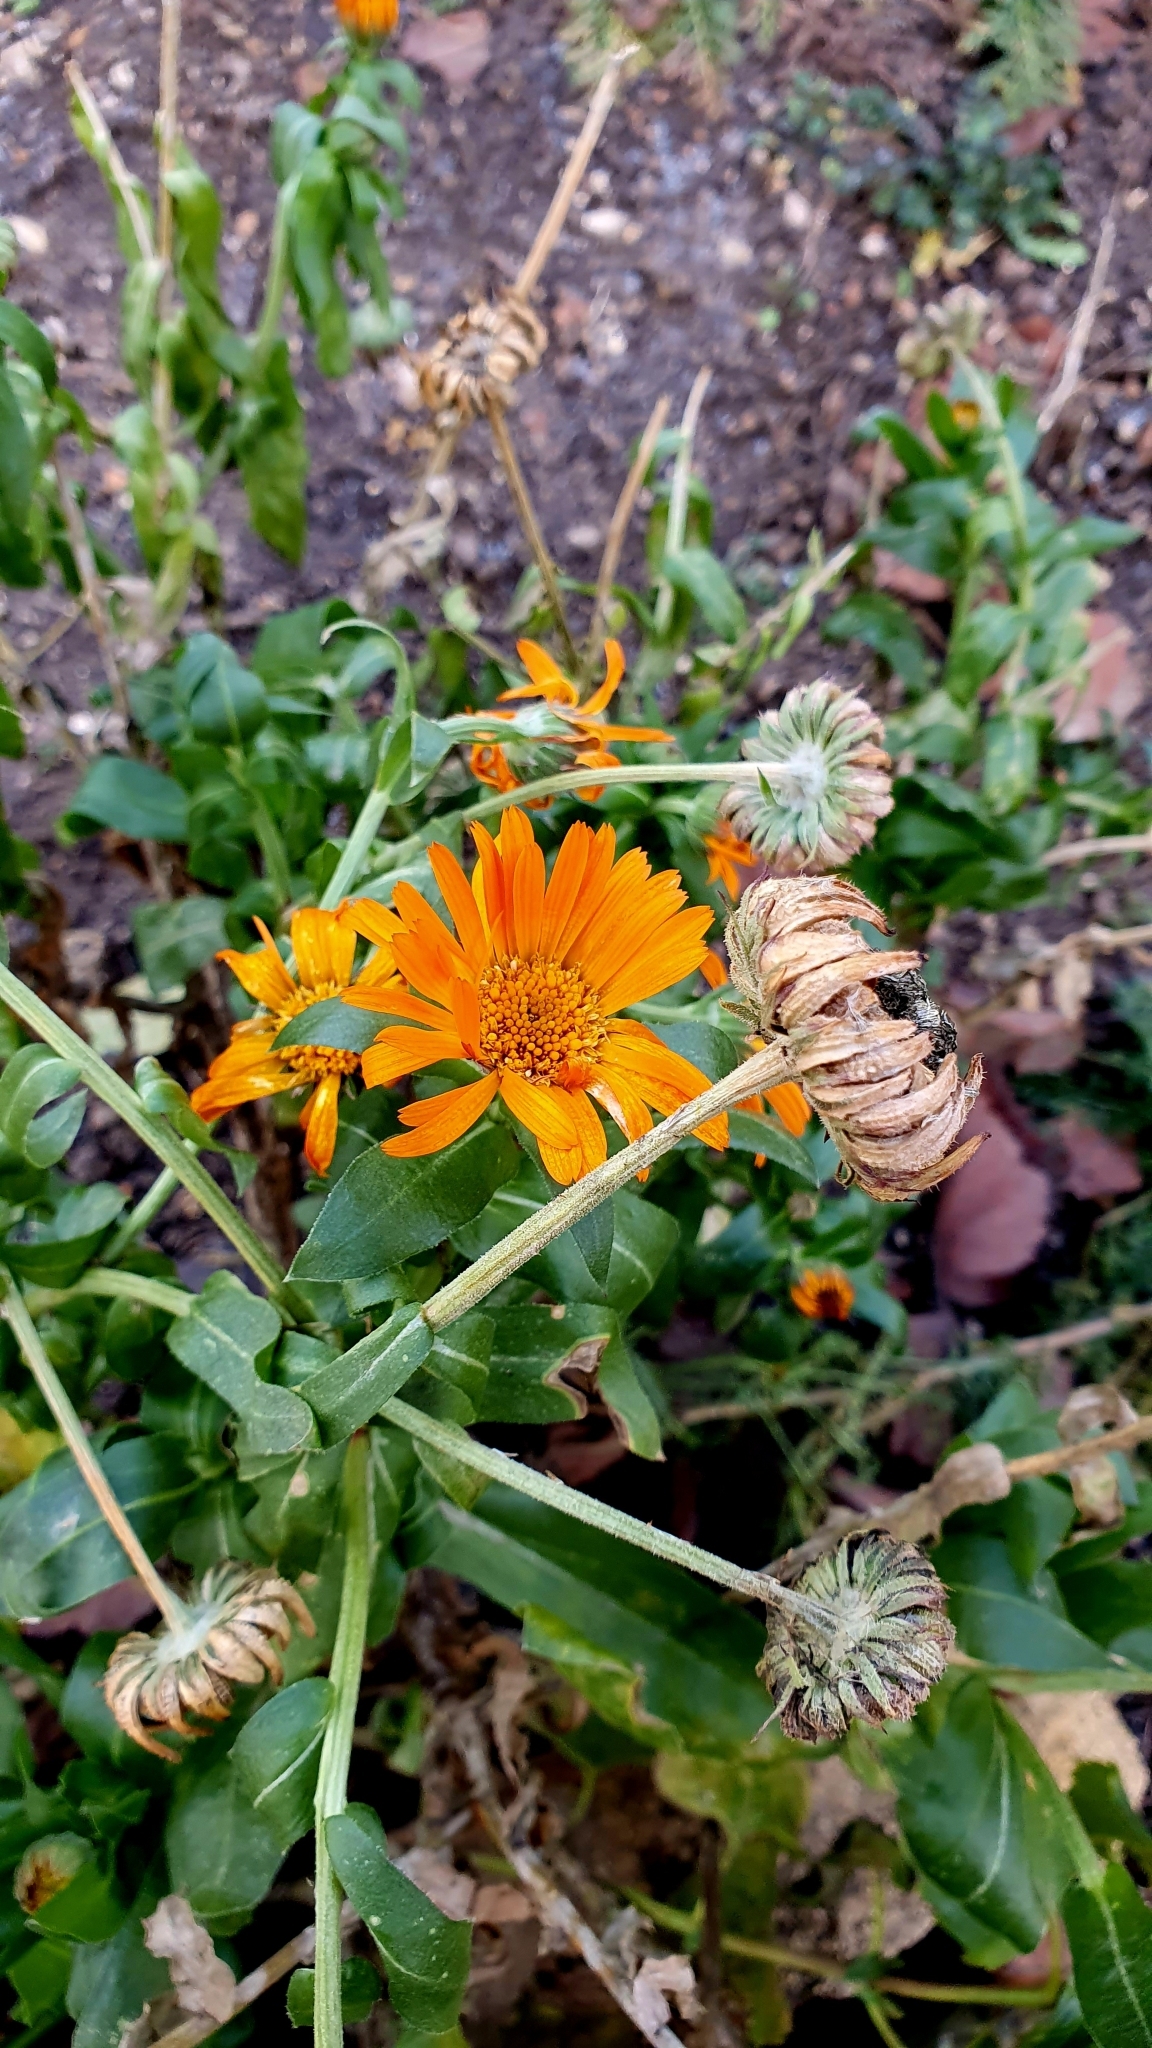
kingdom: Plantae
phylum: Tracheophyta
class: Magnoliopsida
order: Asterales
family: Asteraceae
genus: Calendula
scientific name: Calendula officinalis
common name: Pot marigold
